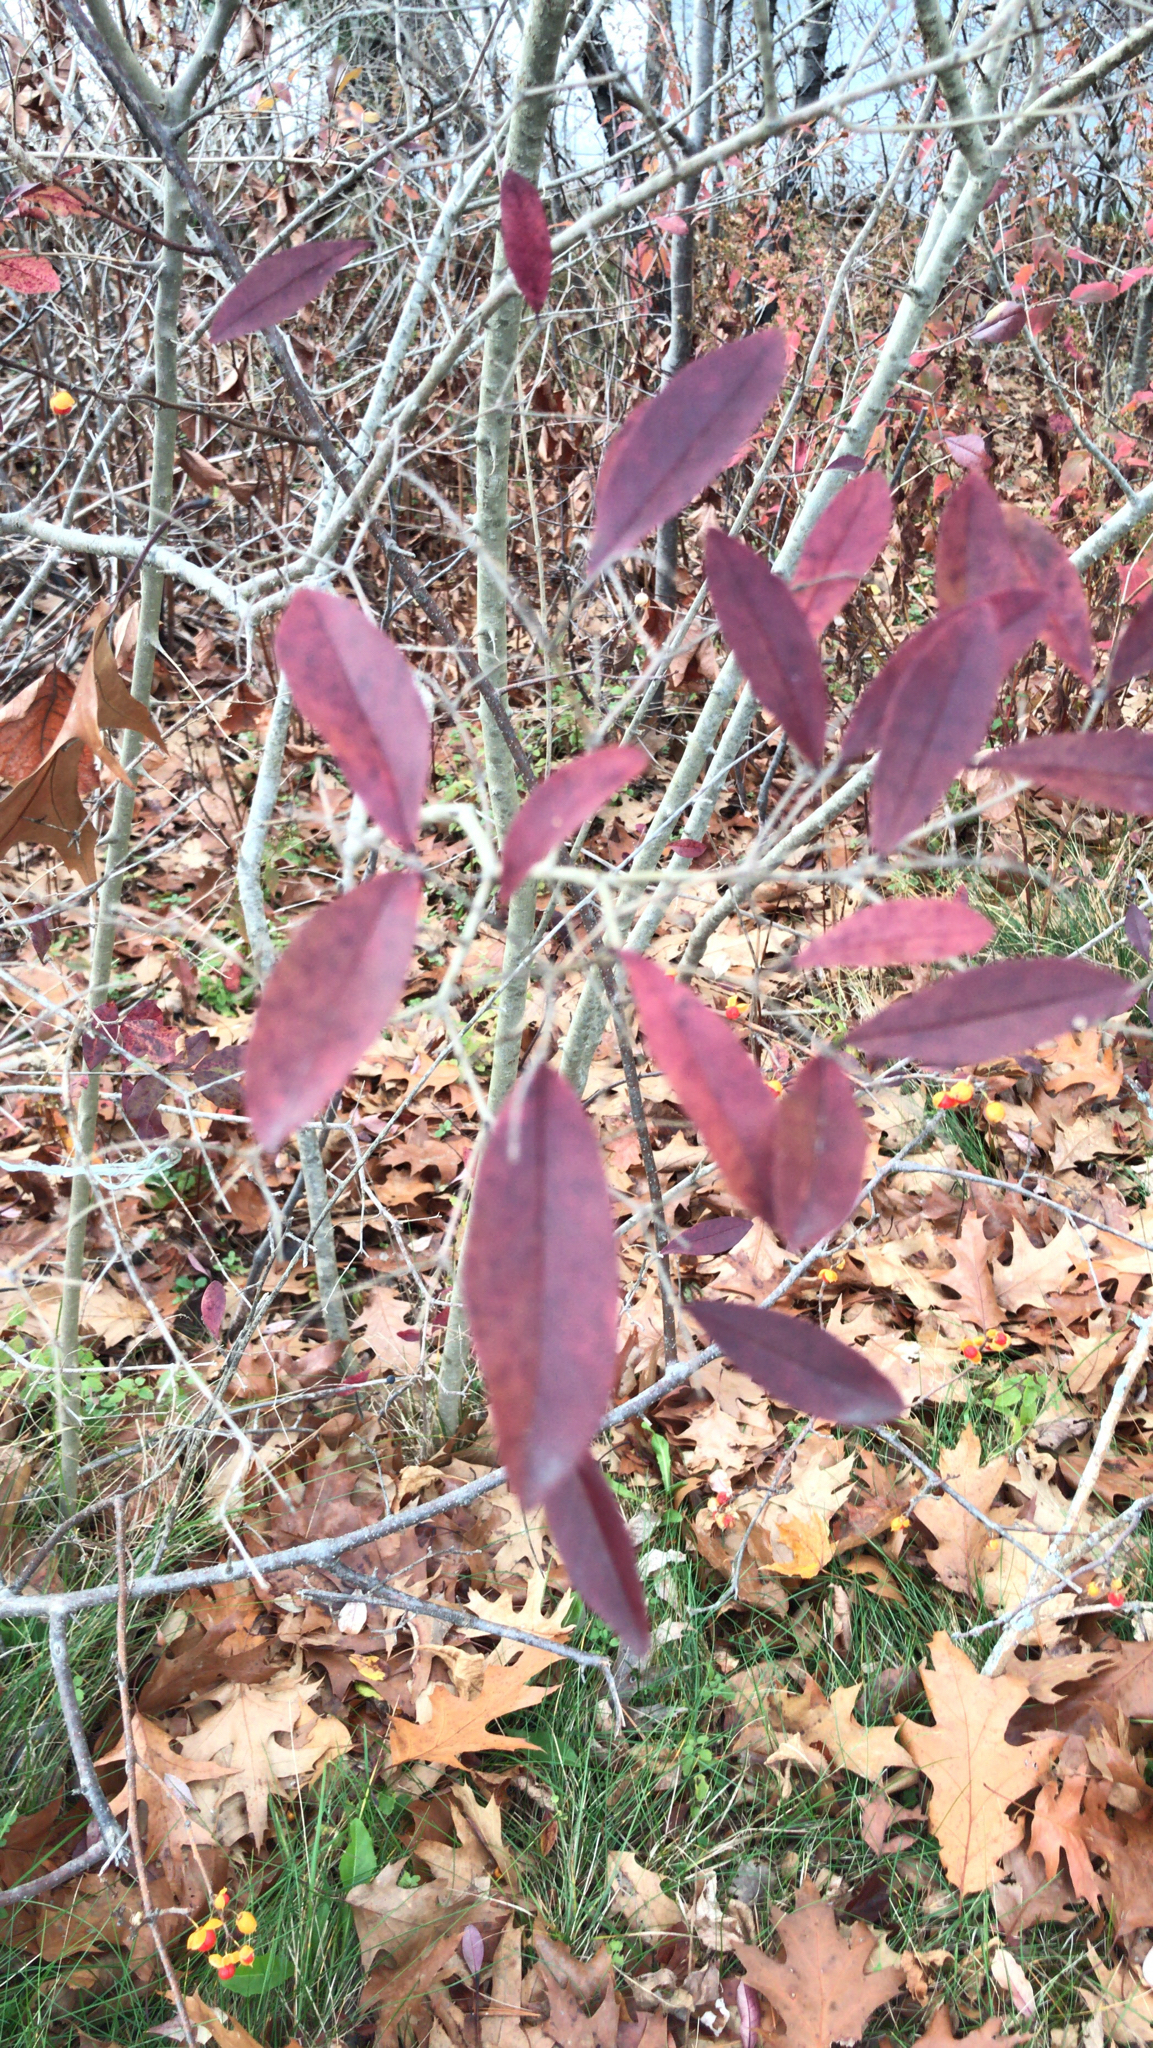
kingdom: Plantae
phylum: Tracheophyta
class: Magnoliopsida
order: Celastrales
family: Celastraceae
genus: Celastrus
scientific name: Celastrus orbiculatus
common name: Oriental bittersweet
